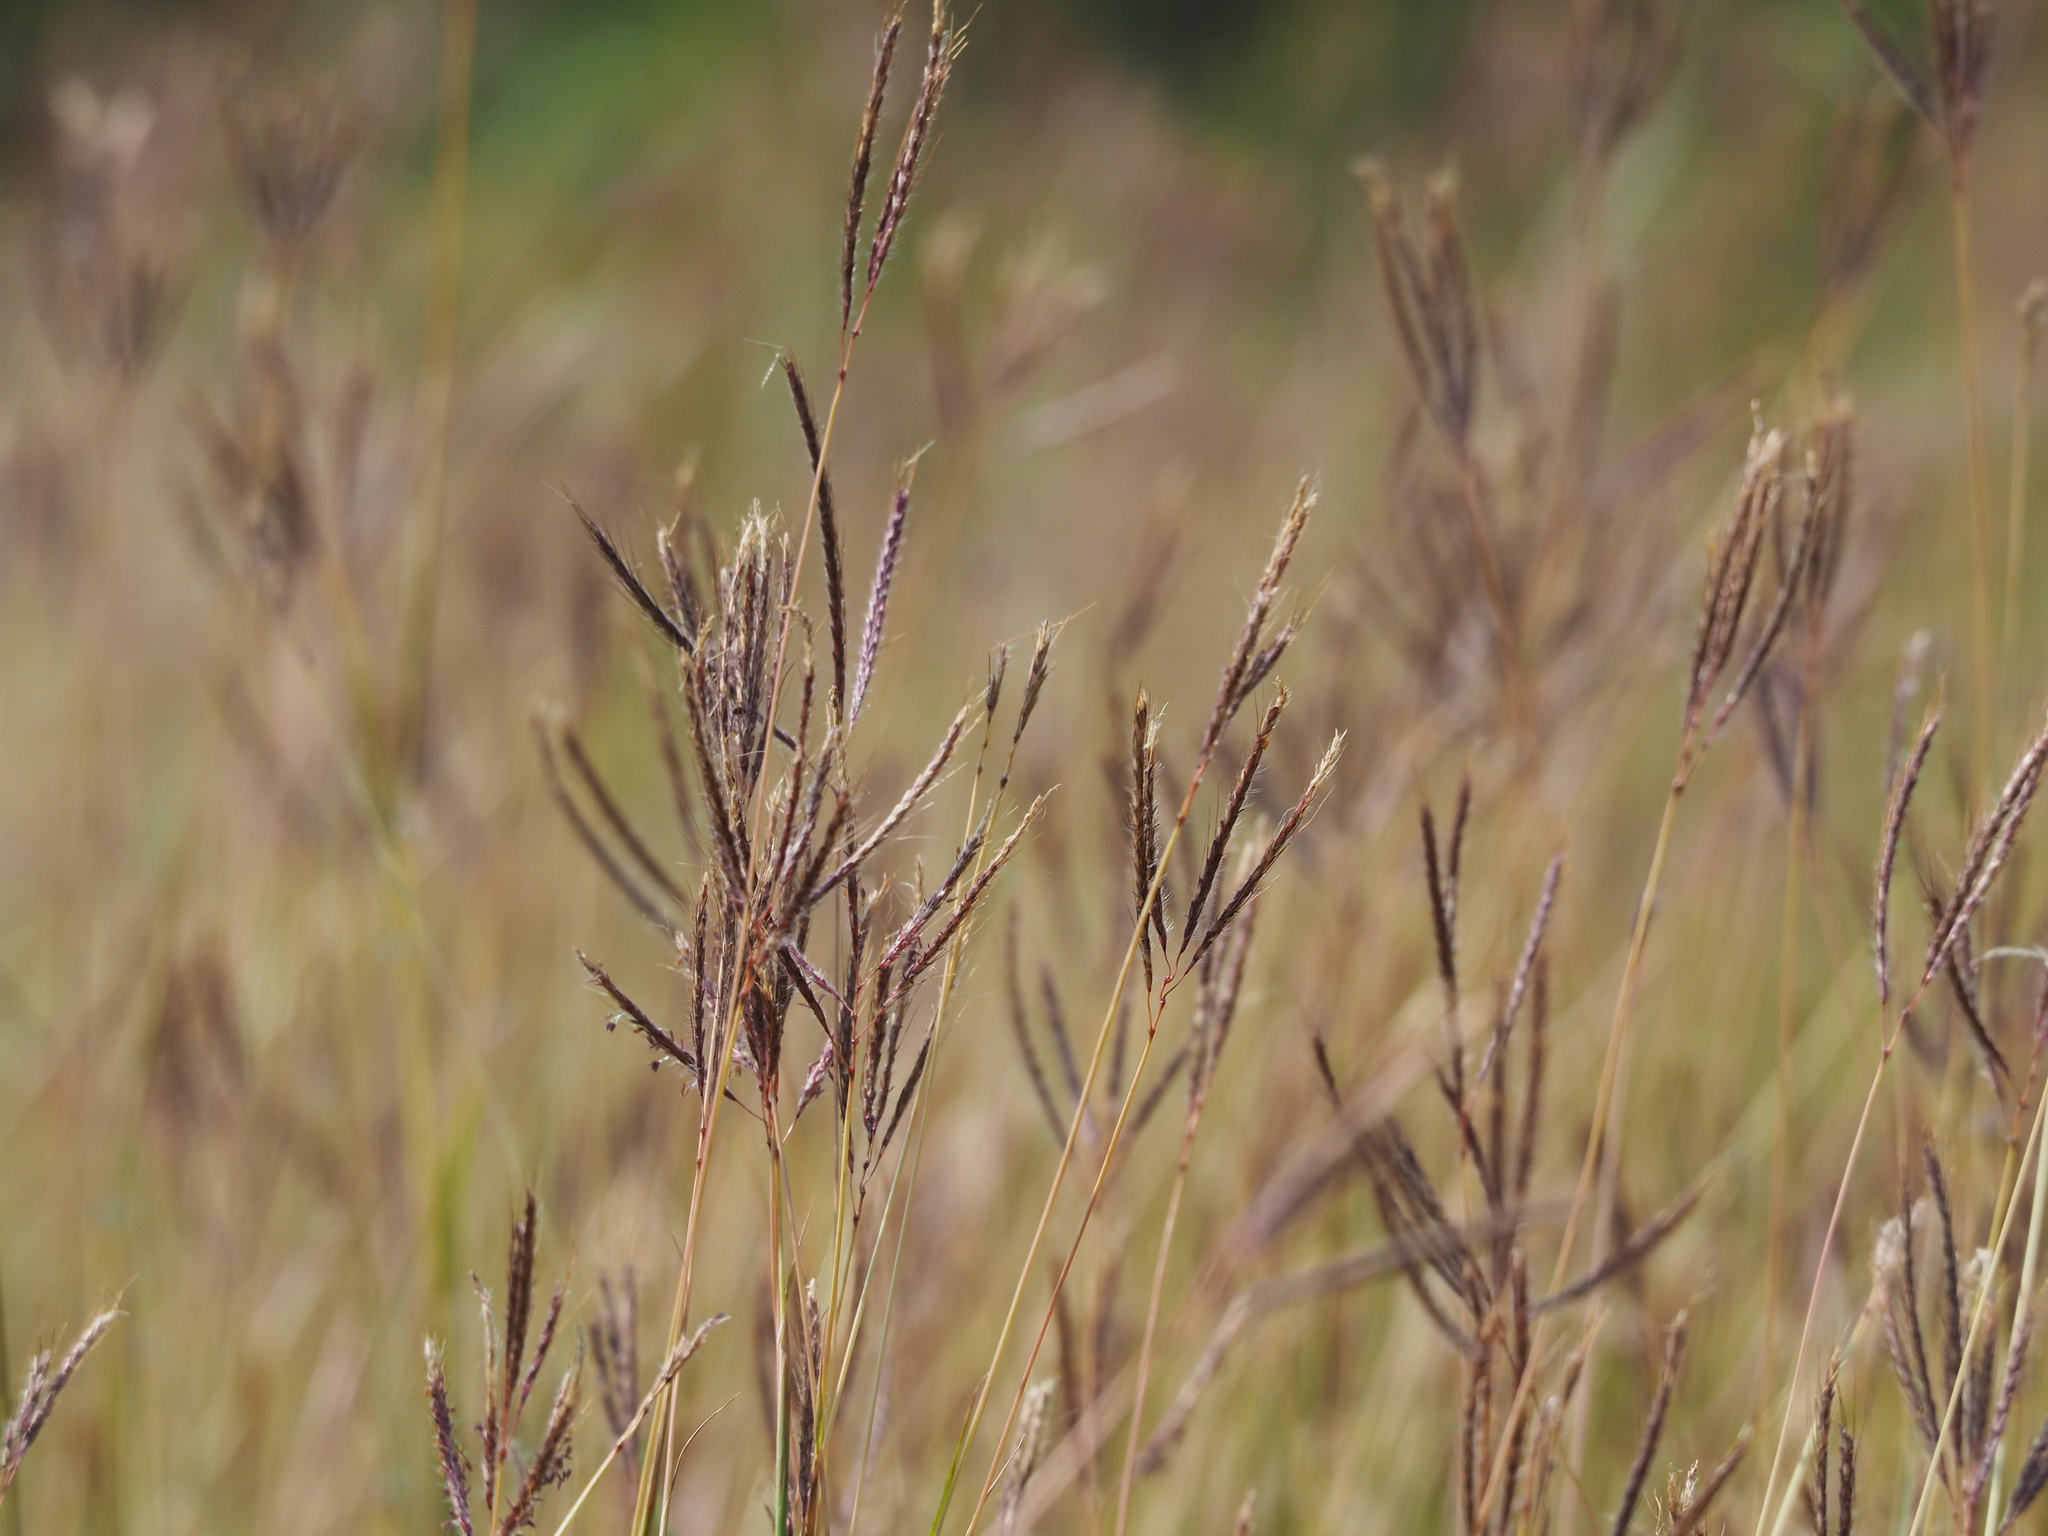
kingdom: Plantae
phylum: Tracheophyta
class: Liliopsida
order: Poales
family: Poaceae
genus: Dichanthium
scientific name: Dichanthium annulatum
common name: Kleberg's bluestem
